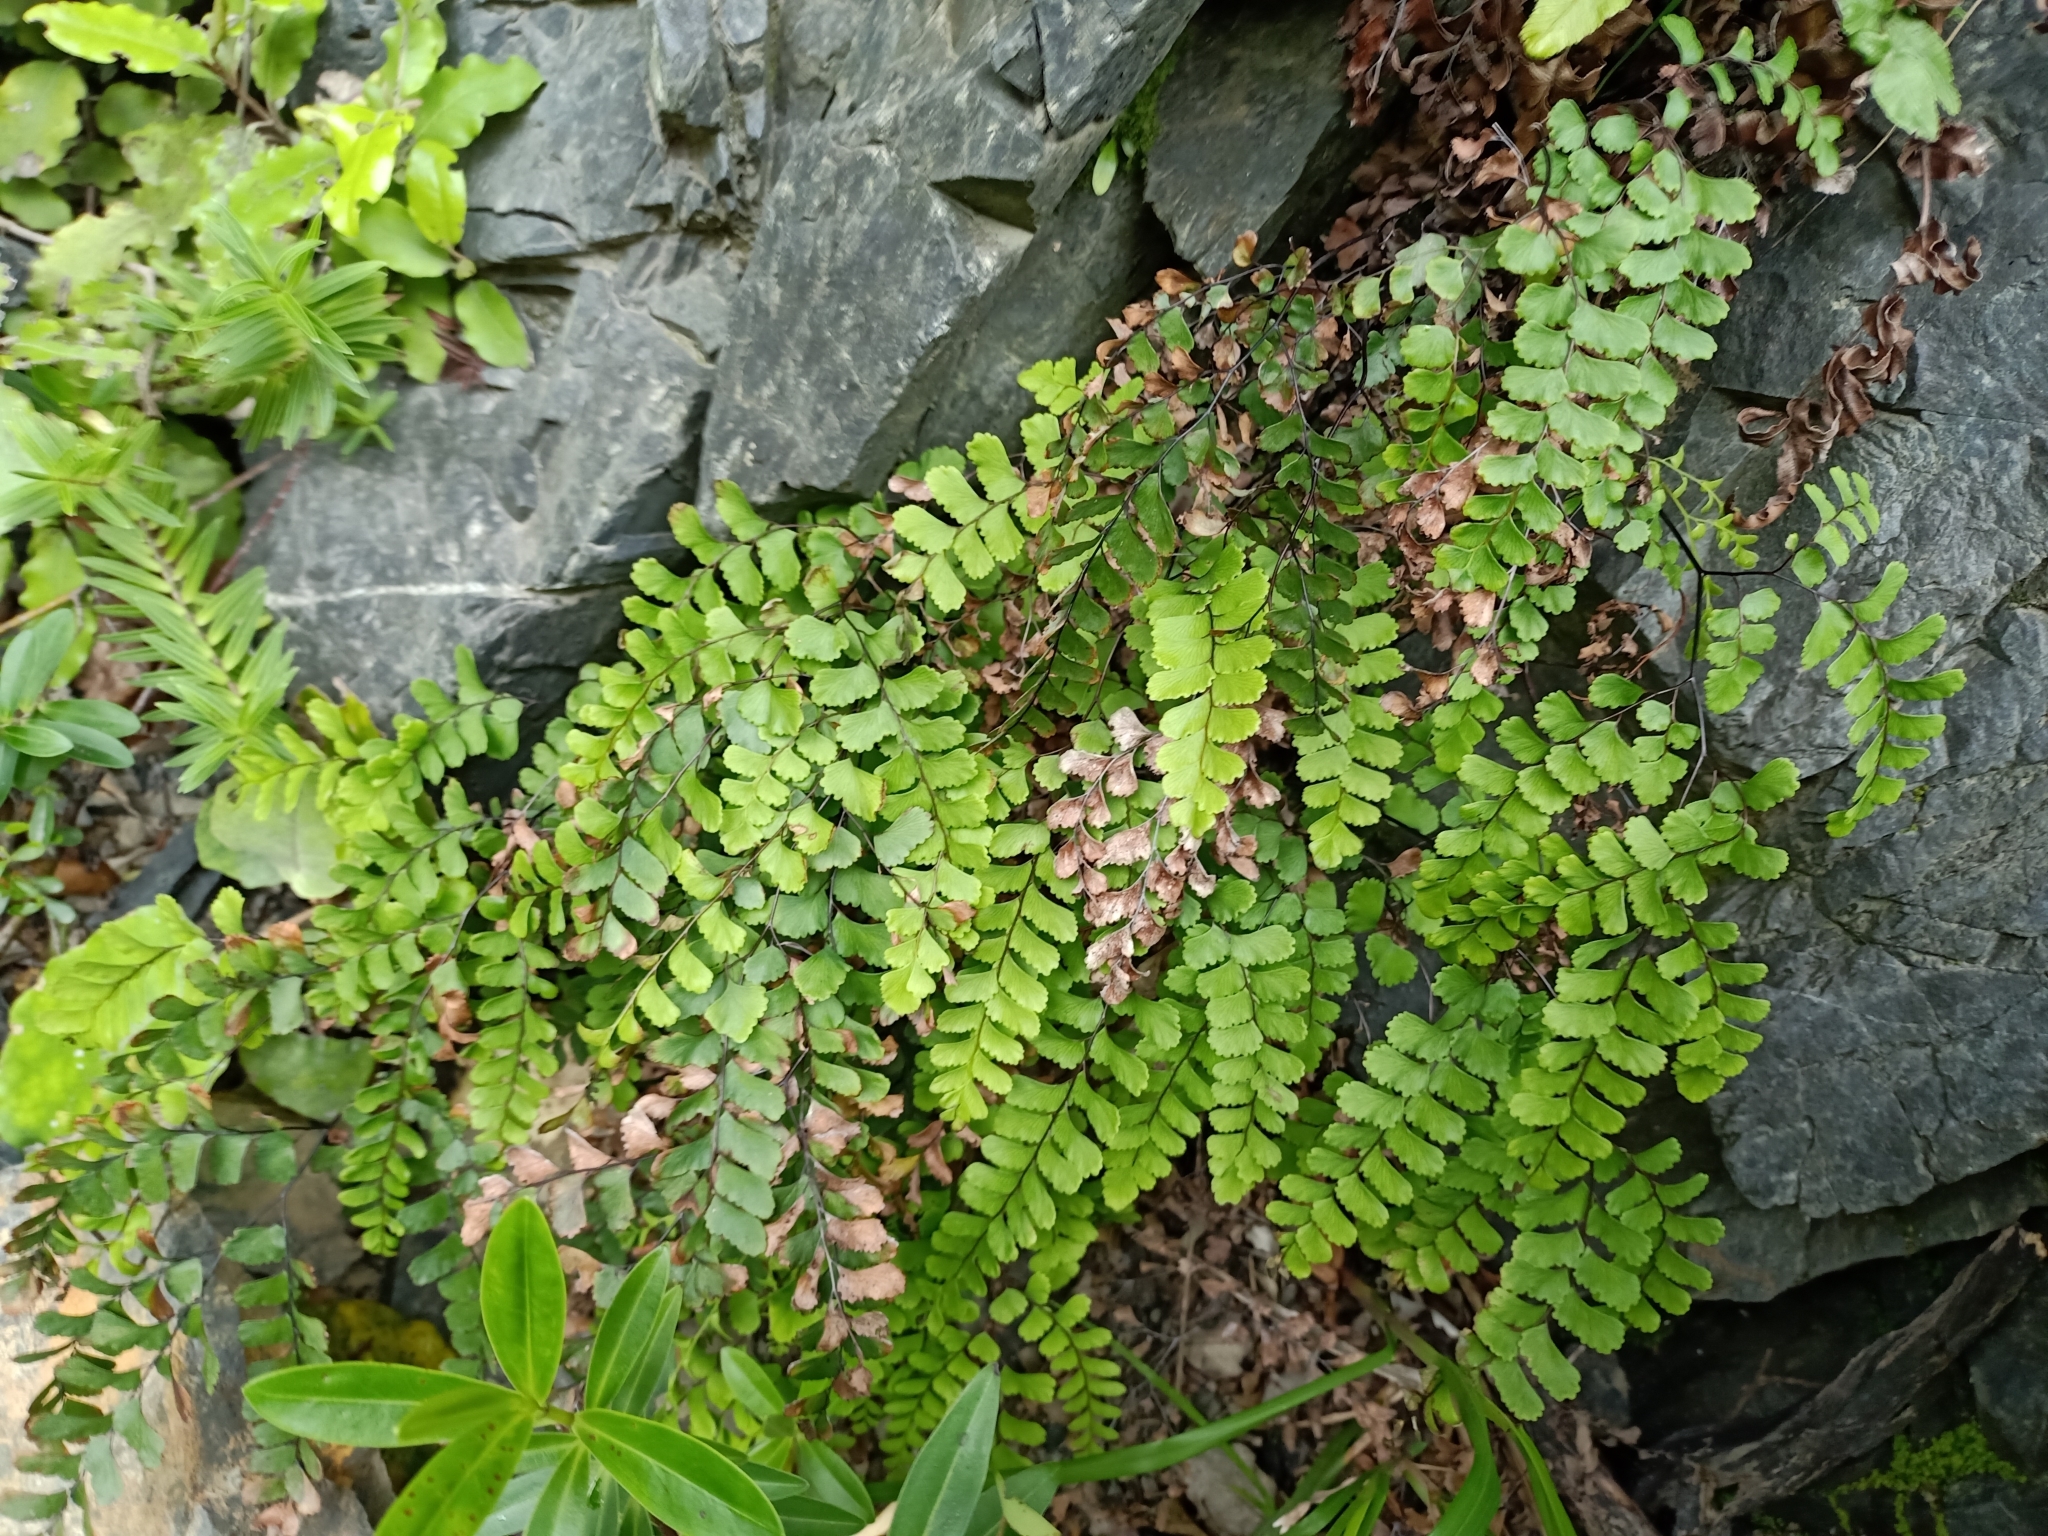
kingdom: Plantae
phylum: Tracheophyta
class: Polypodiopsida
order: Polypodiales
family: Pteridaceae
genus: Adiantum
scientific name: Adiantum cunninghamii
